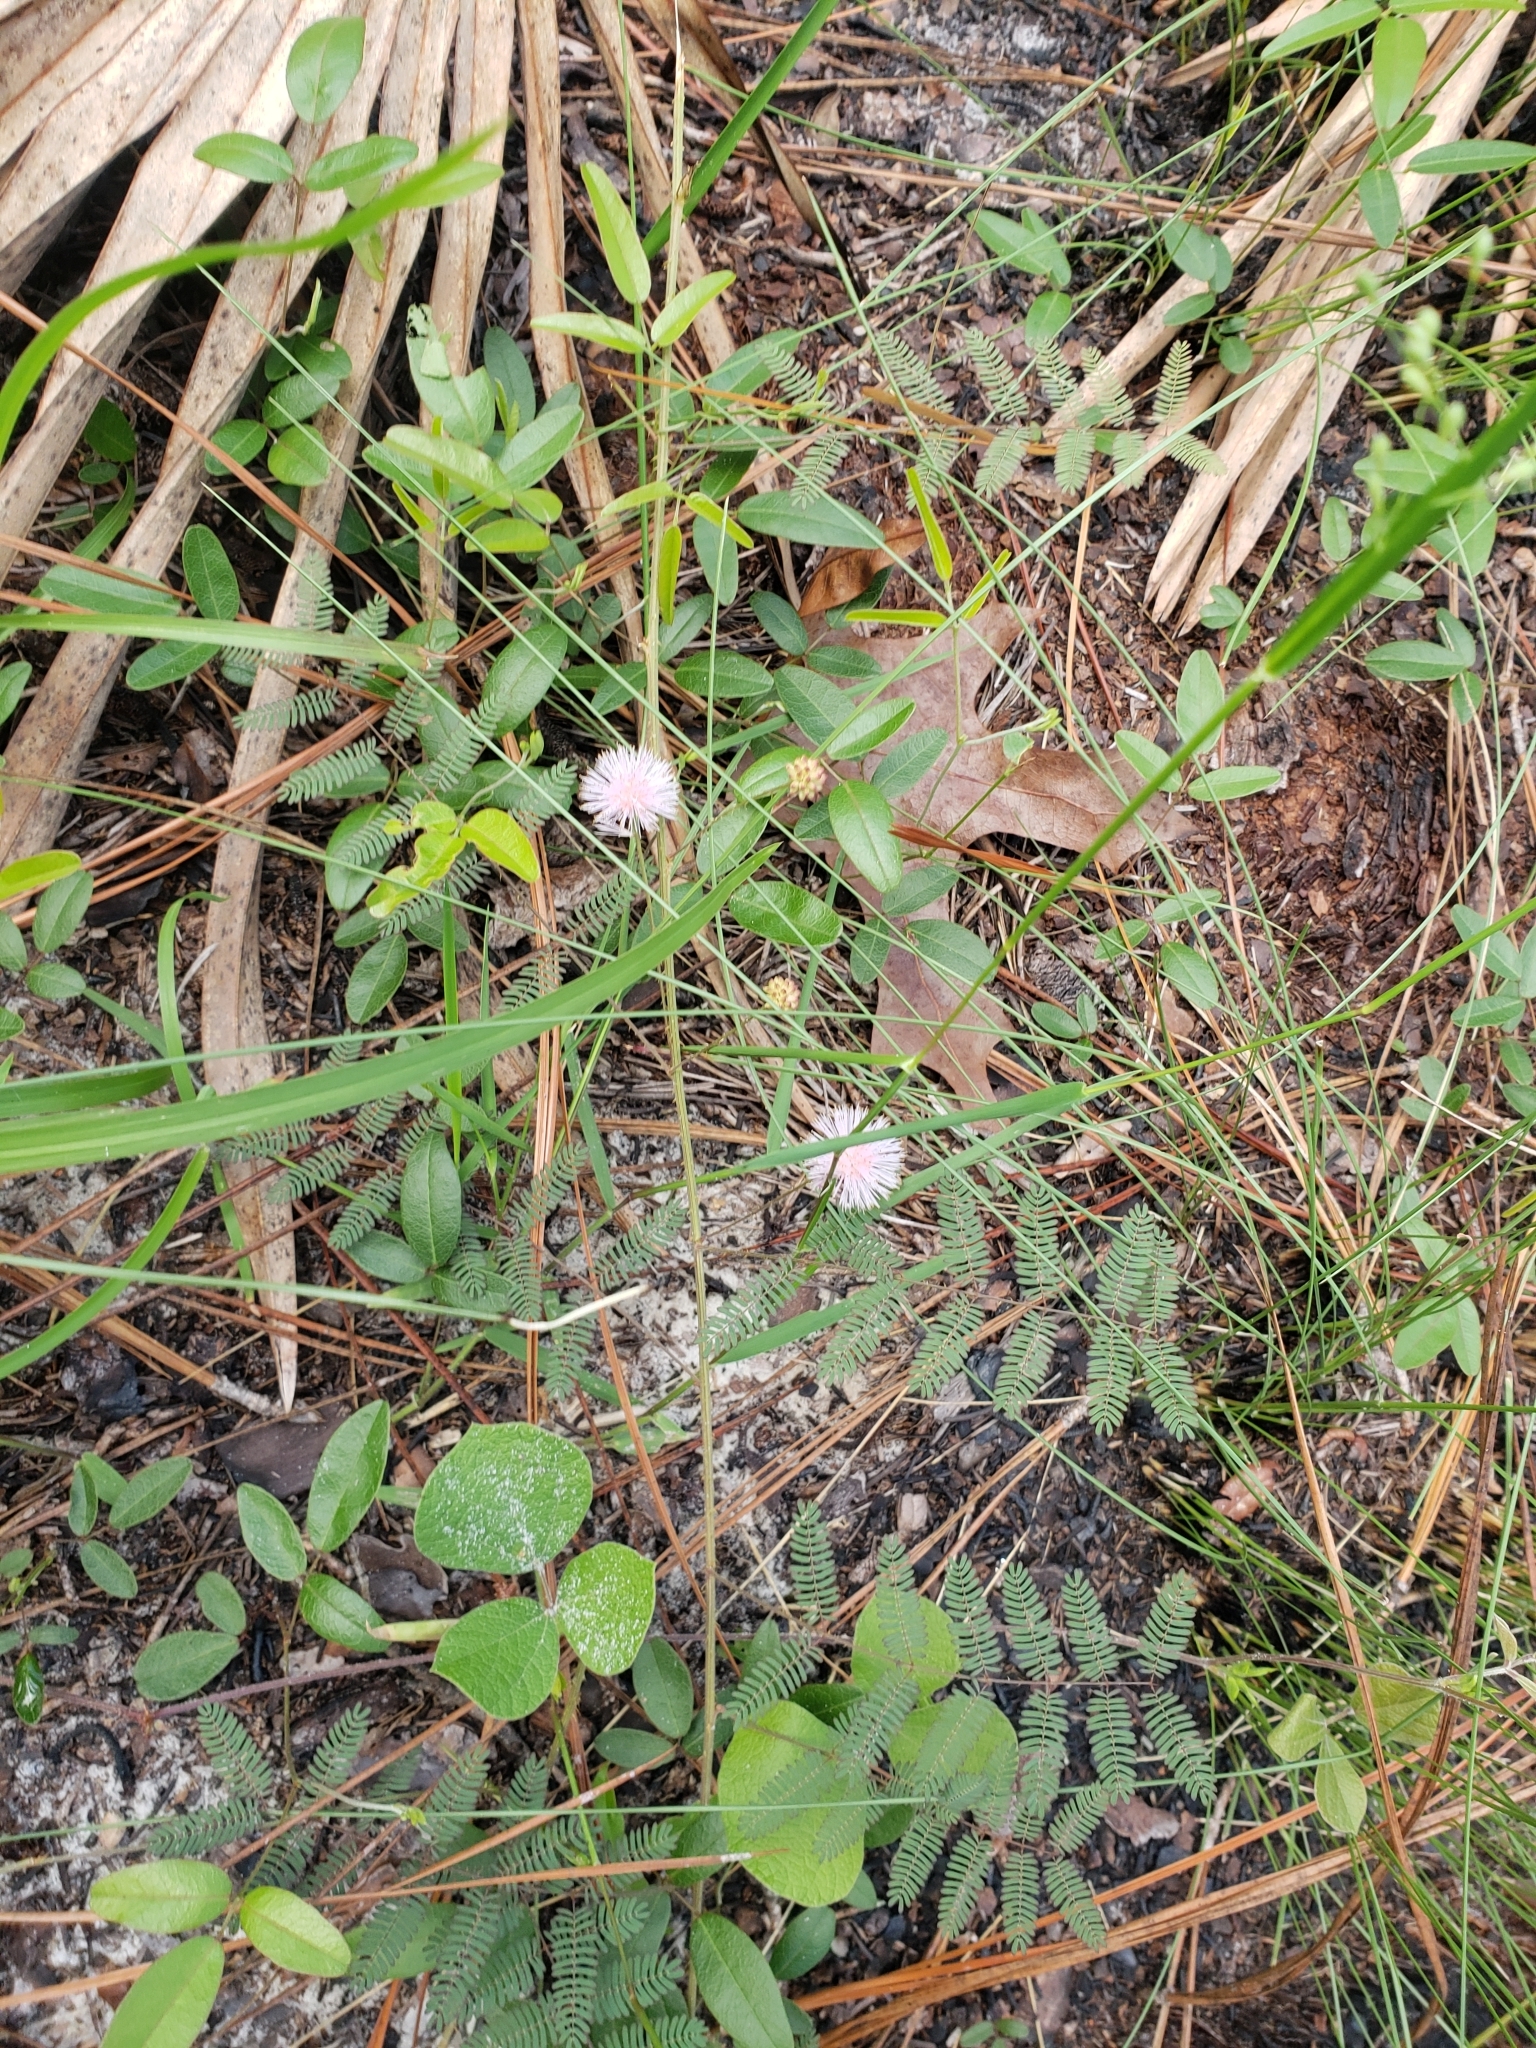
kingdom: Plantae
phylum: Tracheophyta
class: Magnoliopsida
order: Fabales
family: Fabaceae
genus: Mimosa
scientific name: Mimosa quadrivalvis
